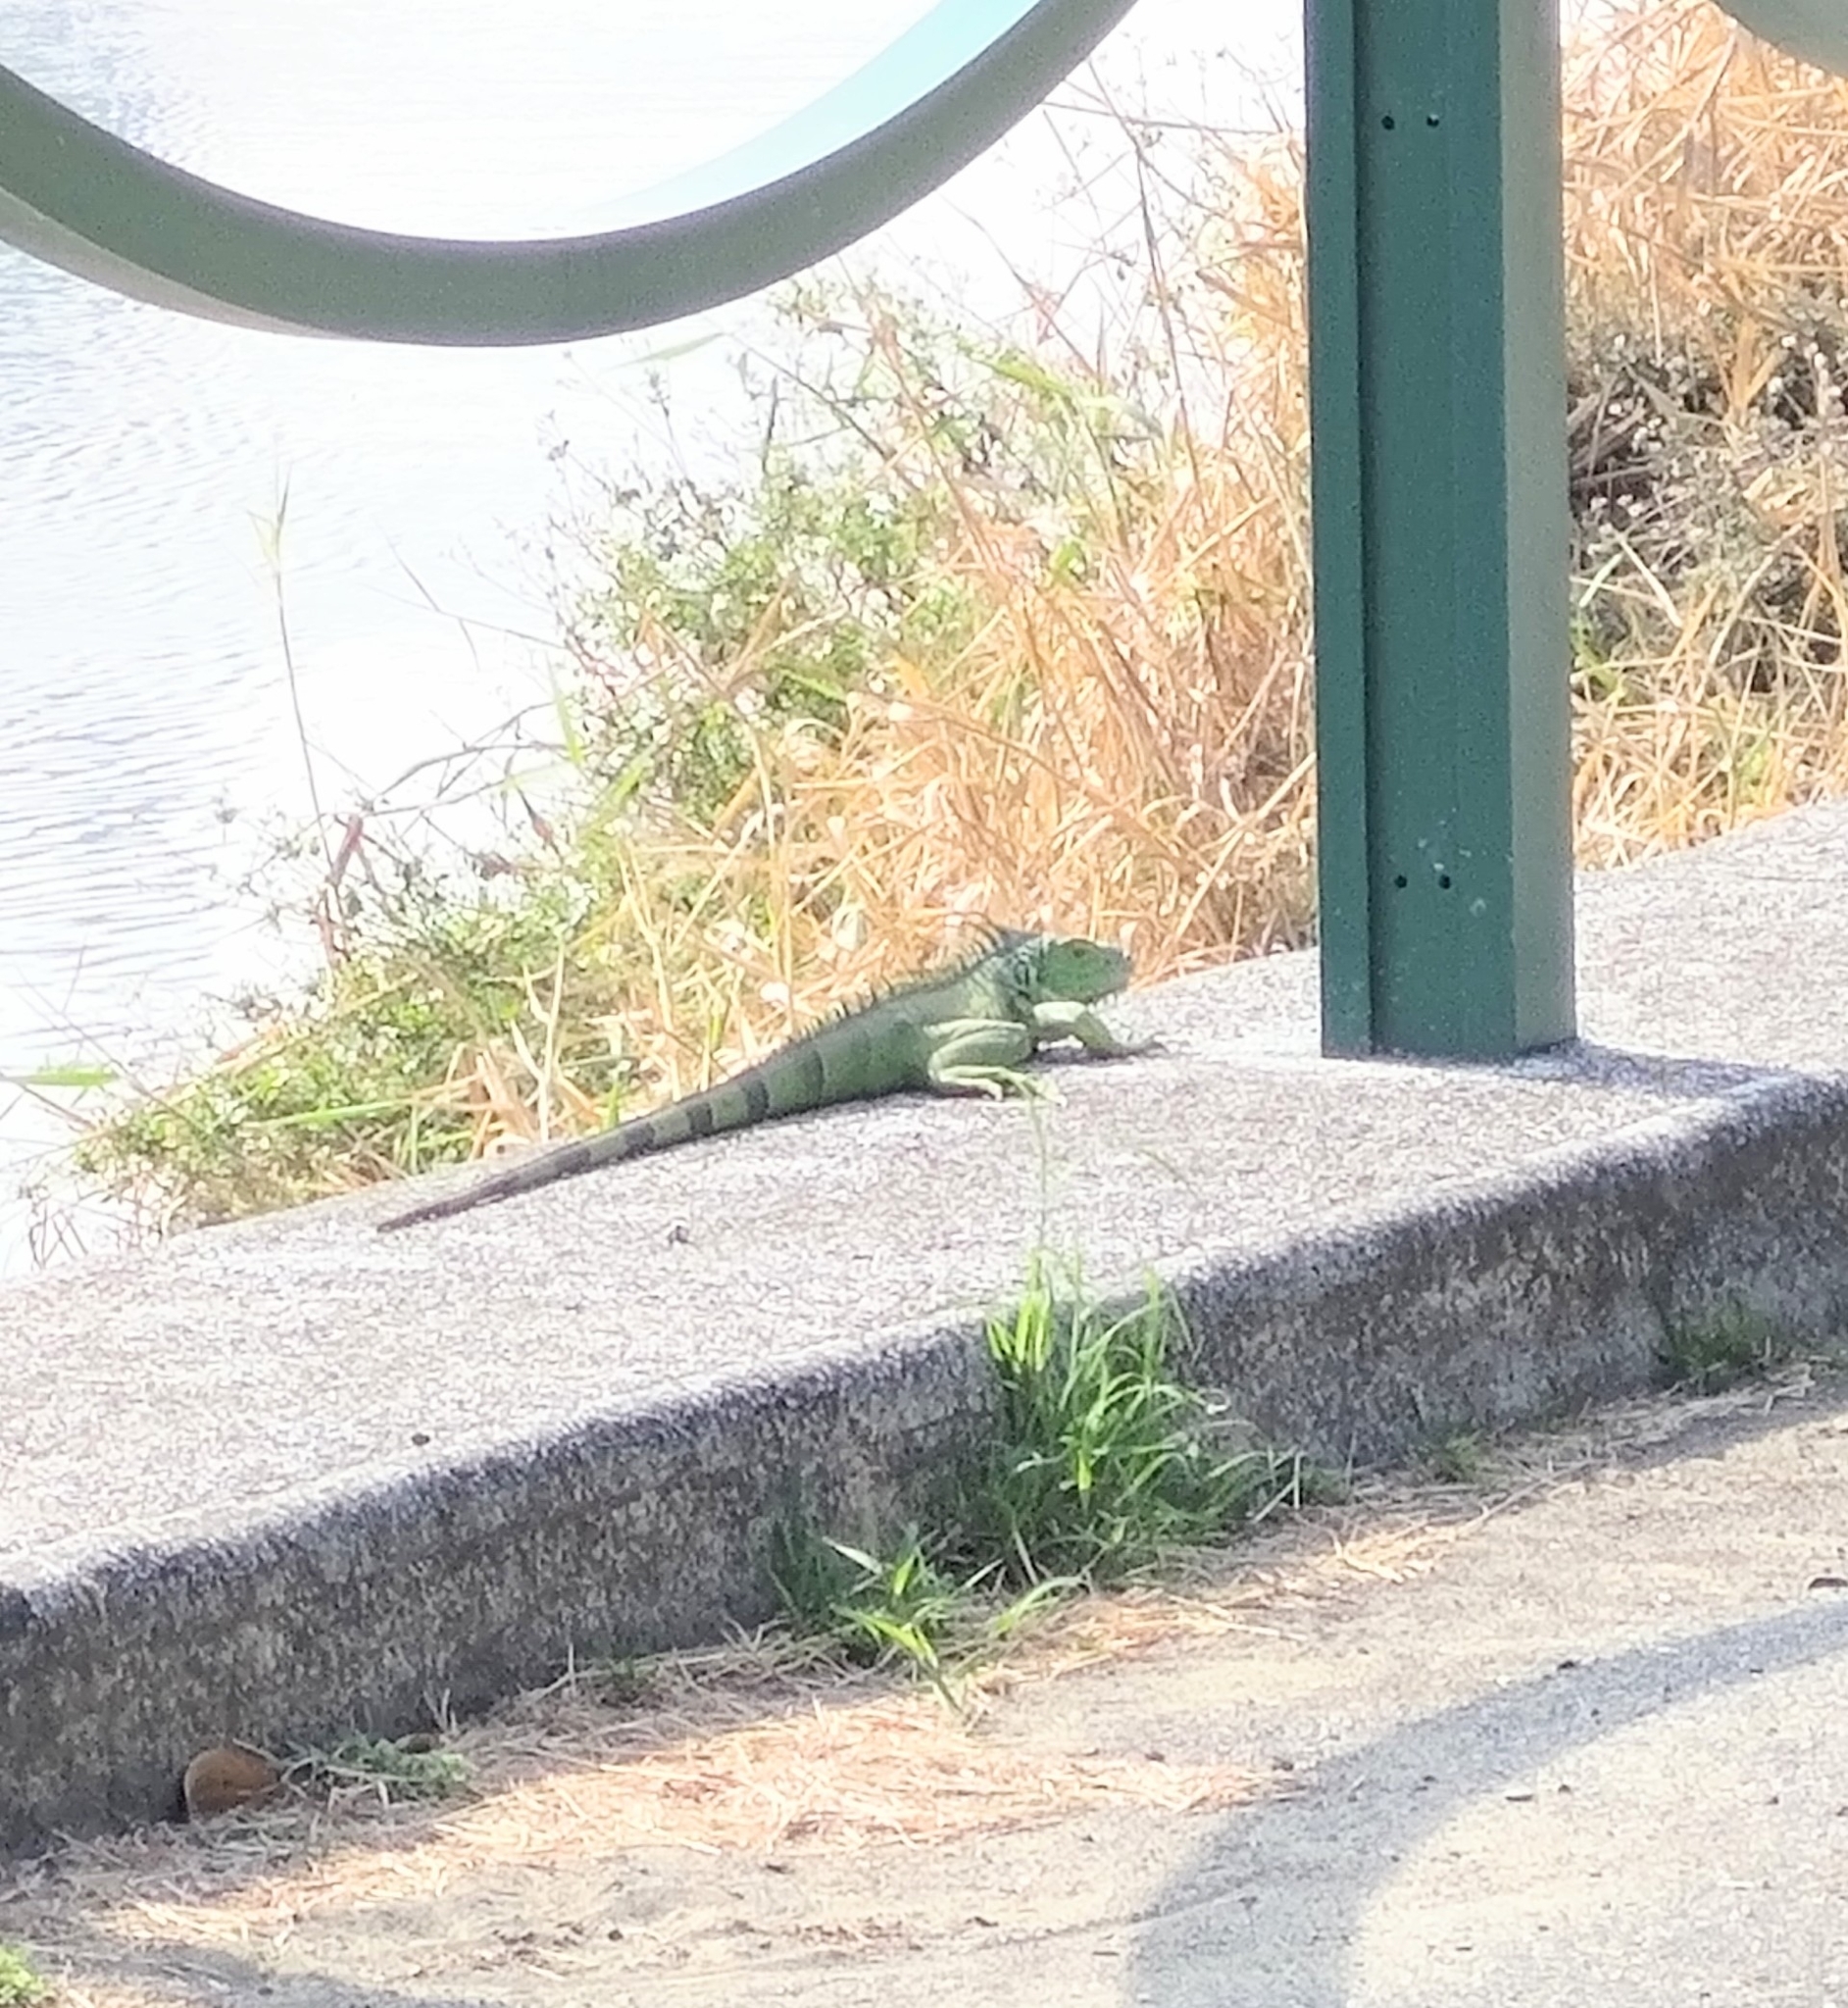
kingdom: Animalia
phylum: Chordata
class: Squamata
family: Iguanidae
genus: Iguana
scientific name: Iguana iguana
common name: Green iguana
